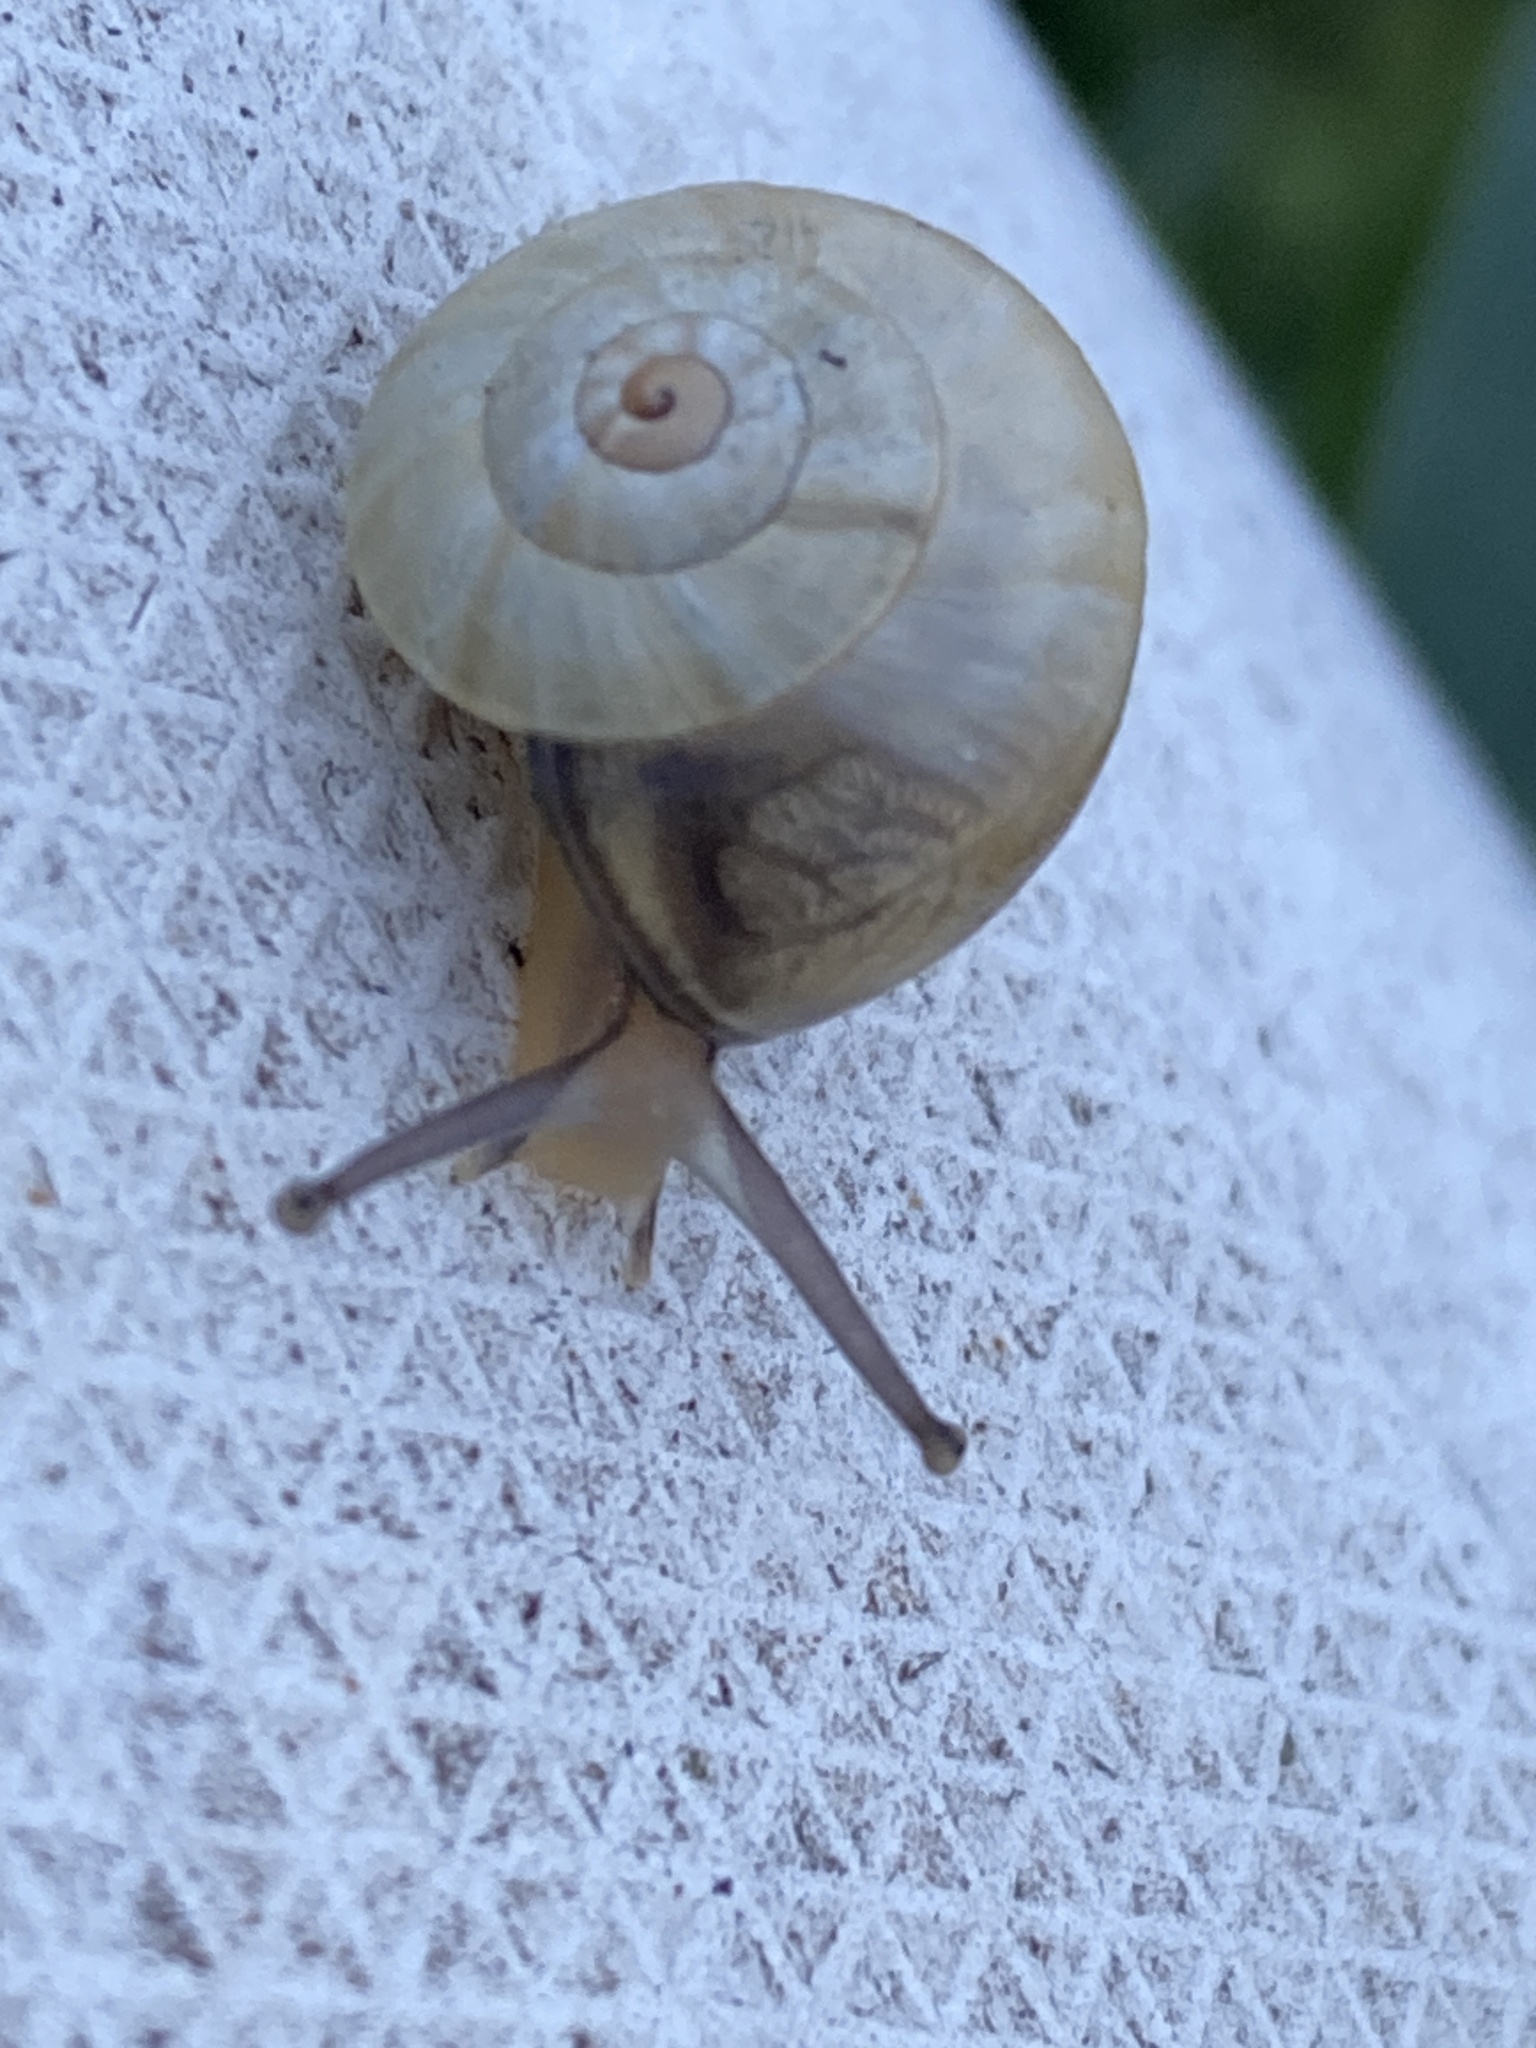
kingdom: Animalia
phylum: Mollusca
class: Gastropoda
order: Stylommatophora
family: Helicidae
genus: Theba
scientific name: Theba pisana
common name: White snail
